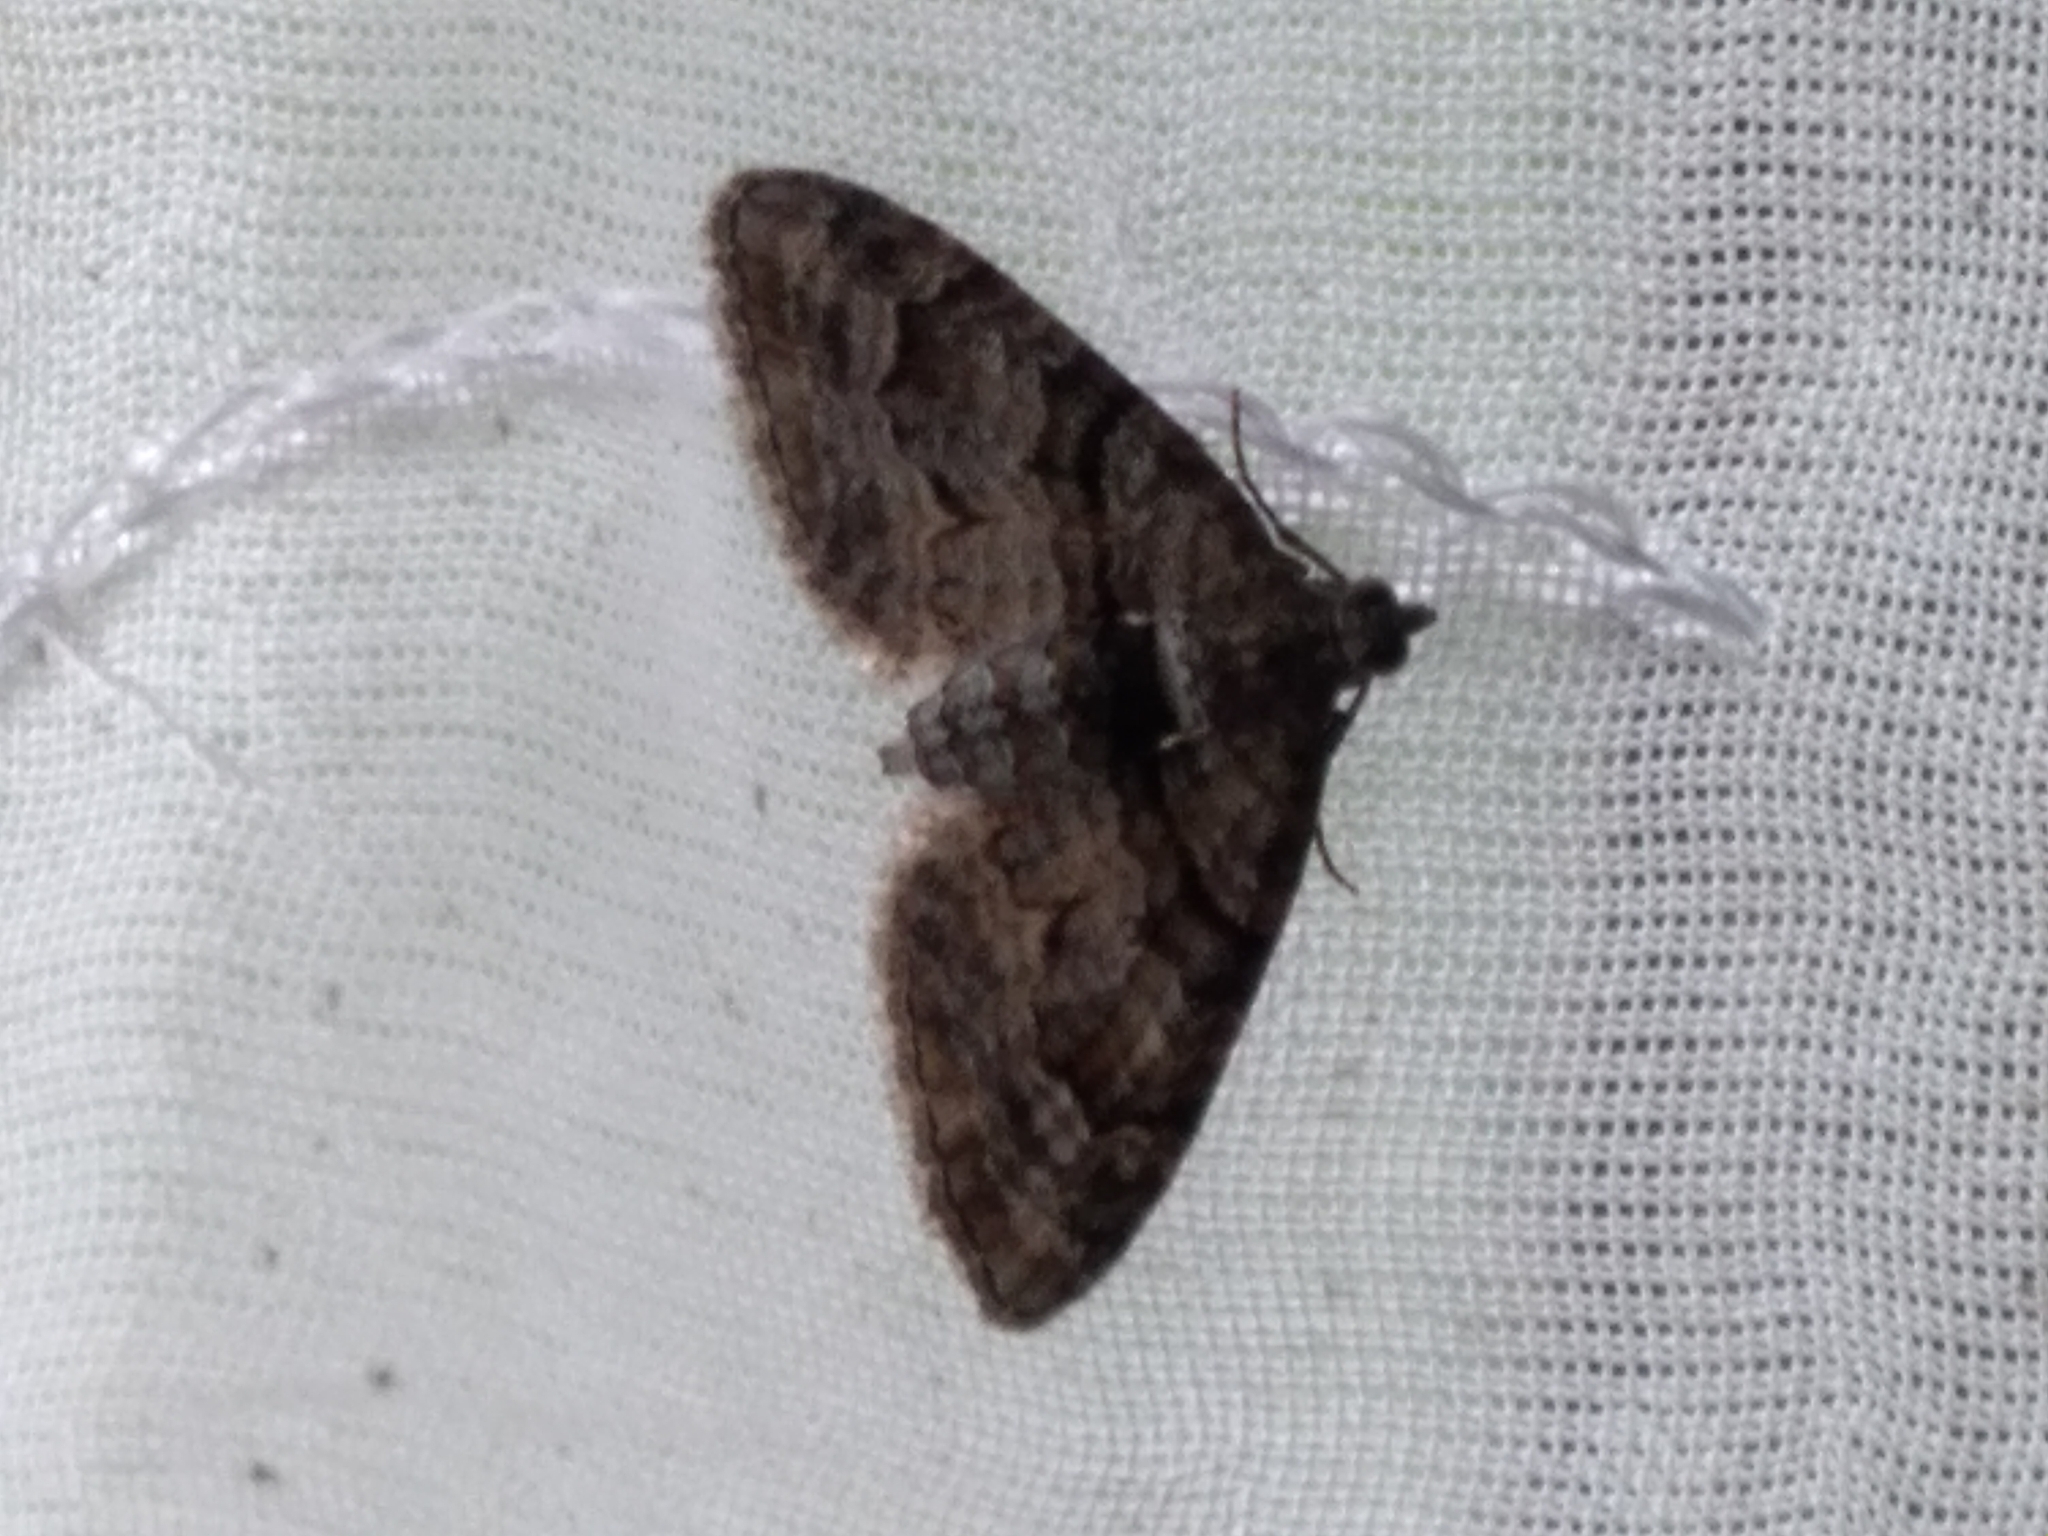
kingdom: Animalia
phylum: Arthropoda
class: Insecta
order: Lepidoptera
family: Geometridae
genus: Phrissogonus
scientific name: Phrissogonus laticostata
